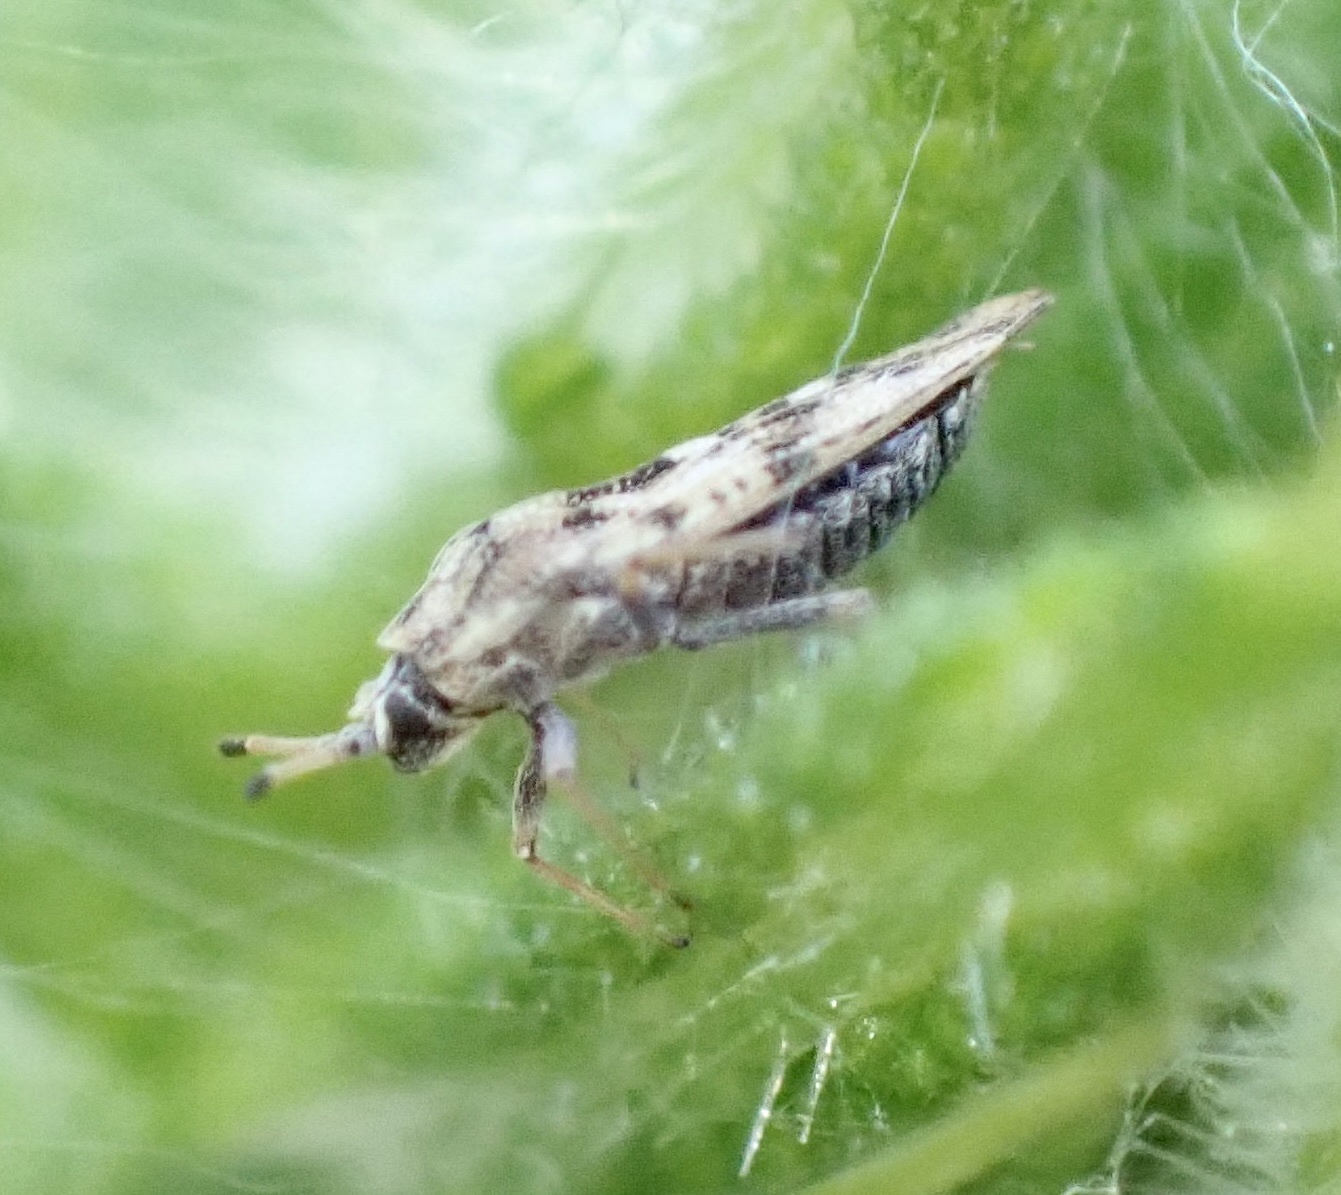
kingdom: Animalia
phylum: Arthropoda
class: Insecta
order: Hemiptera
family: Tingidae
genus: Tingis
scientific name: Tingis cardui
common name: Spear thistle lacebug
